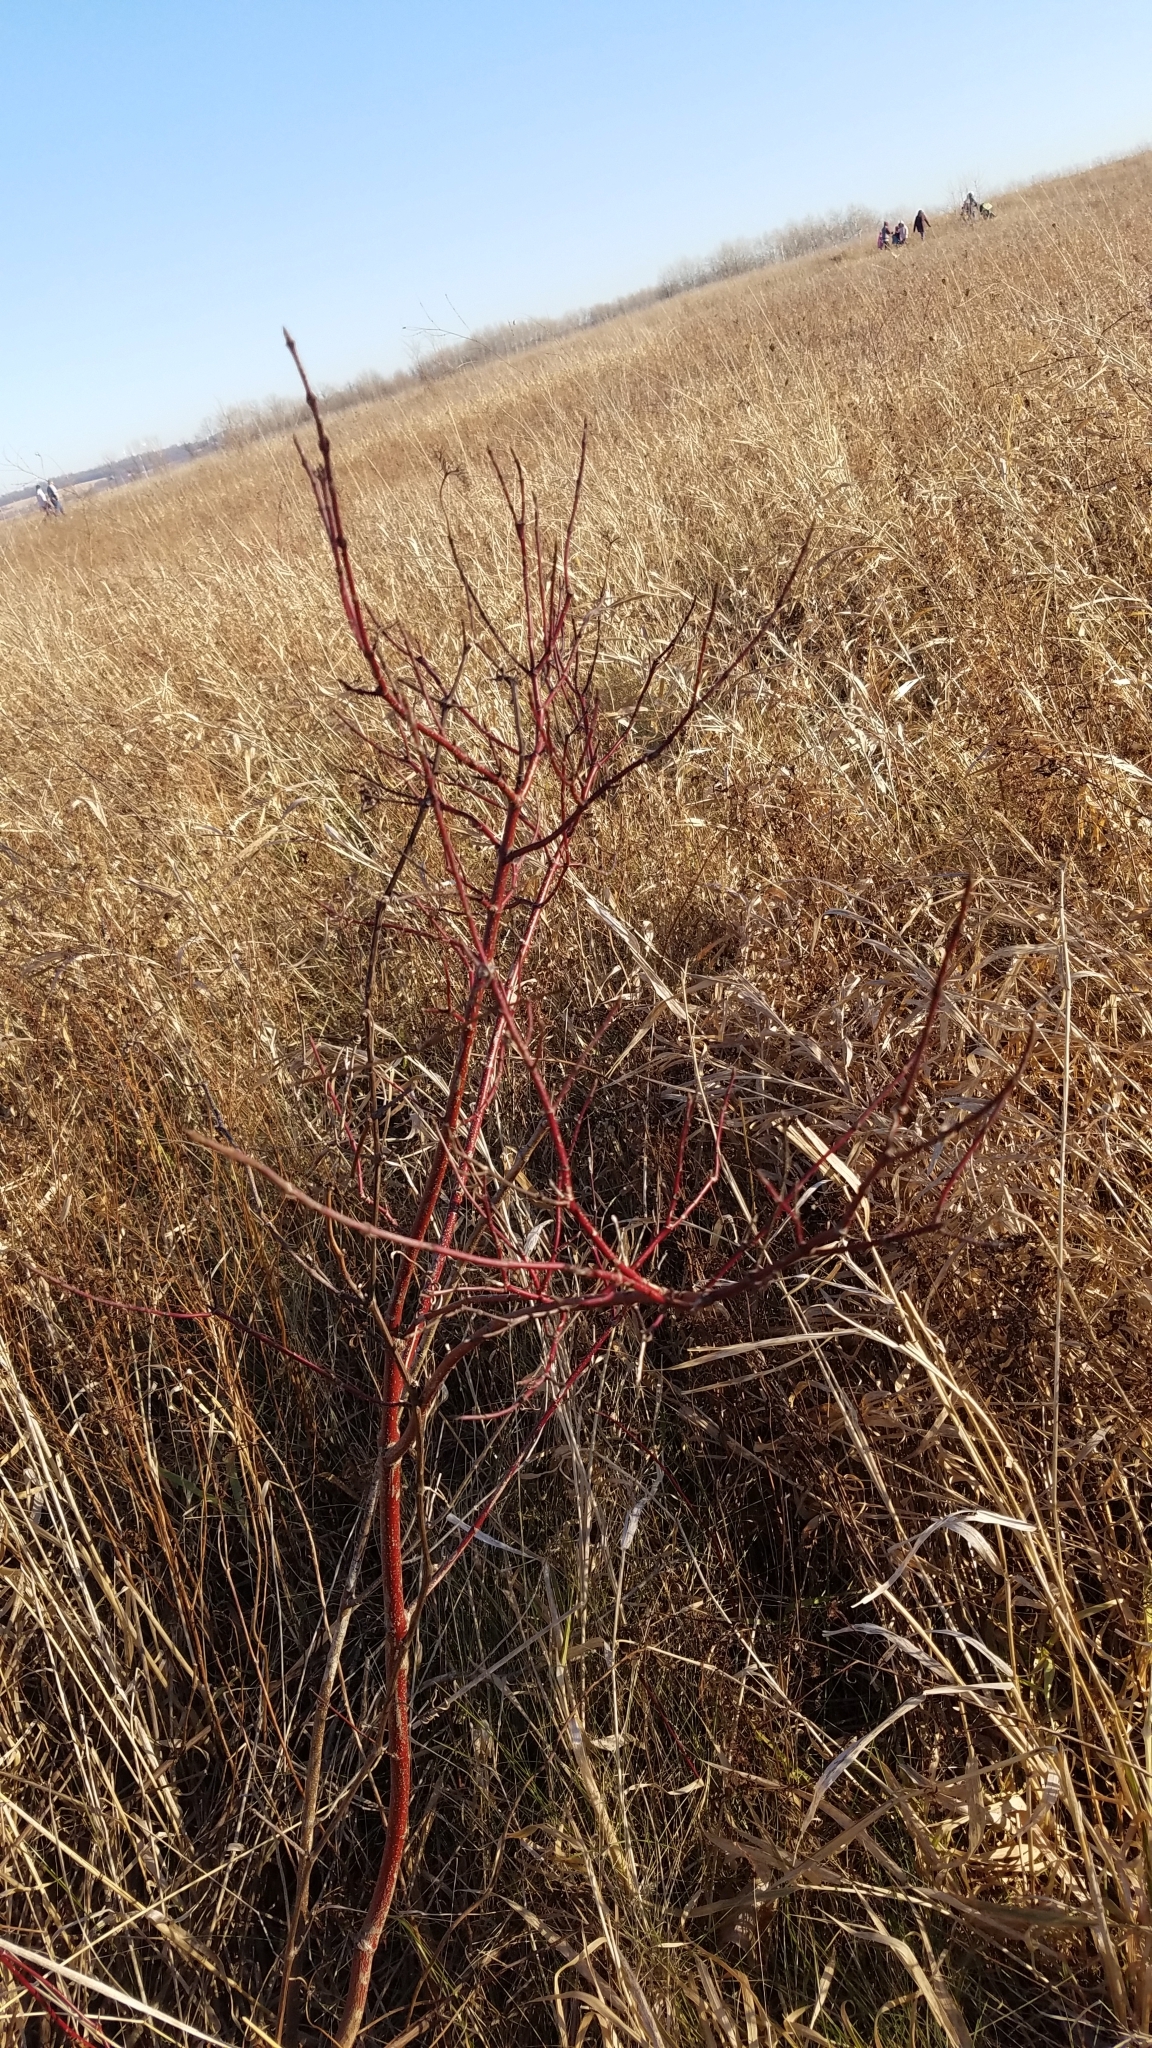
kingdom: Plantae
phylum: Tracheophyta
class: Magnoliopsida
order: Cornales
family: Cornaceae
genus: Cornus
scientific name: Cornus sericea
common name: Red-osier dogwood
